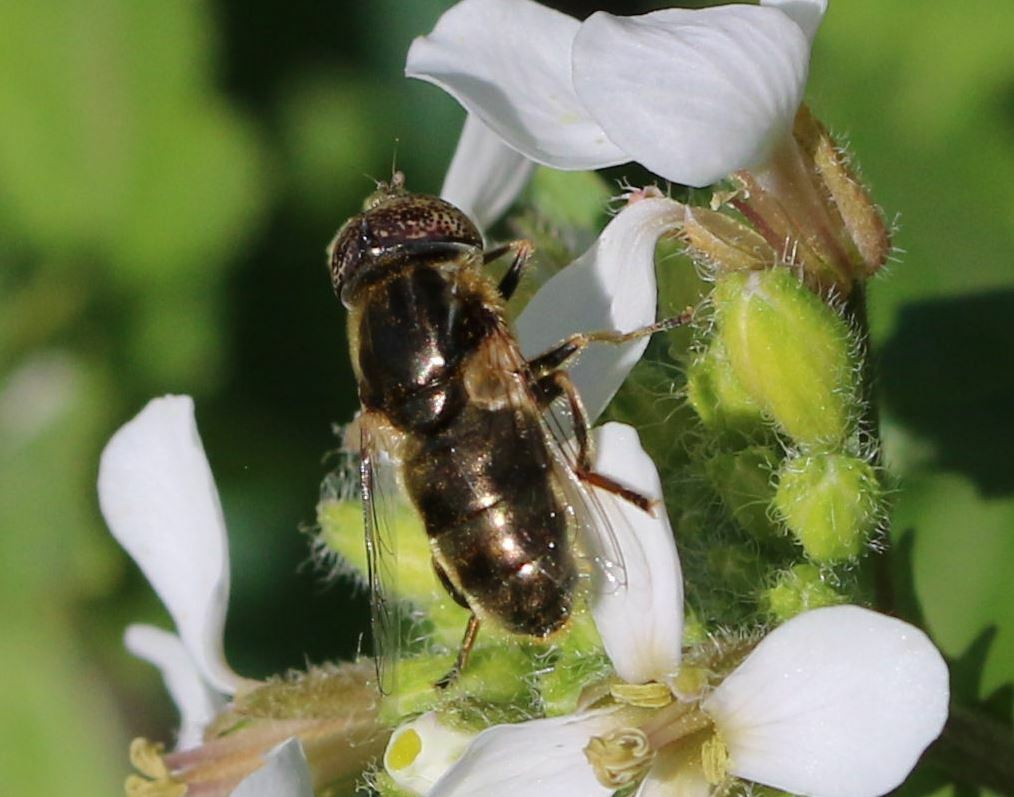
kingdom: Animalia
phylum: Arthropoda
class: Insecta
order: Diptera
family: Syrphidae
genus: Eristalinus
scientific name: Eristalinus aeneus
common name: Syrphid fly
